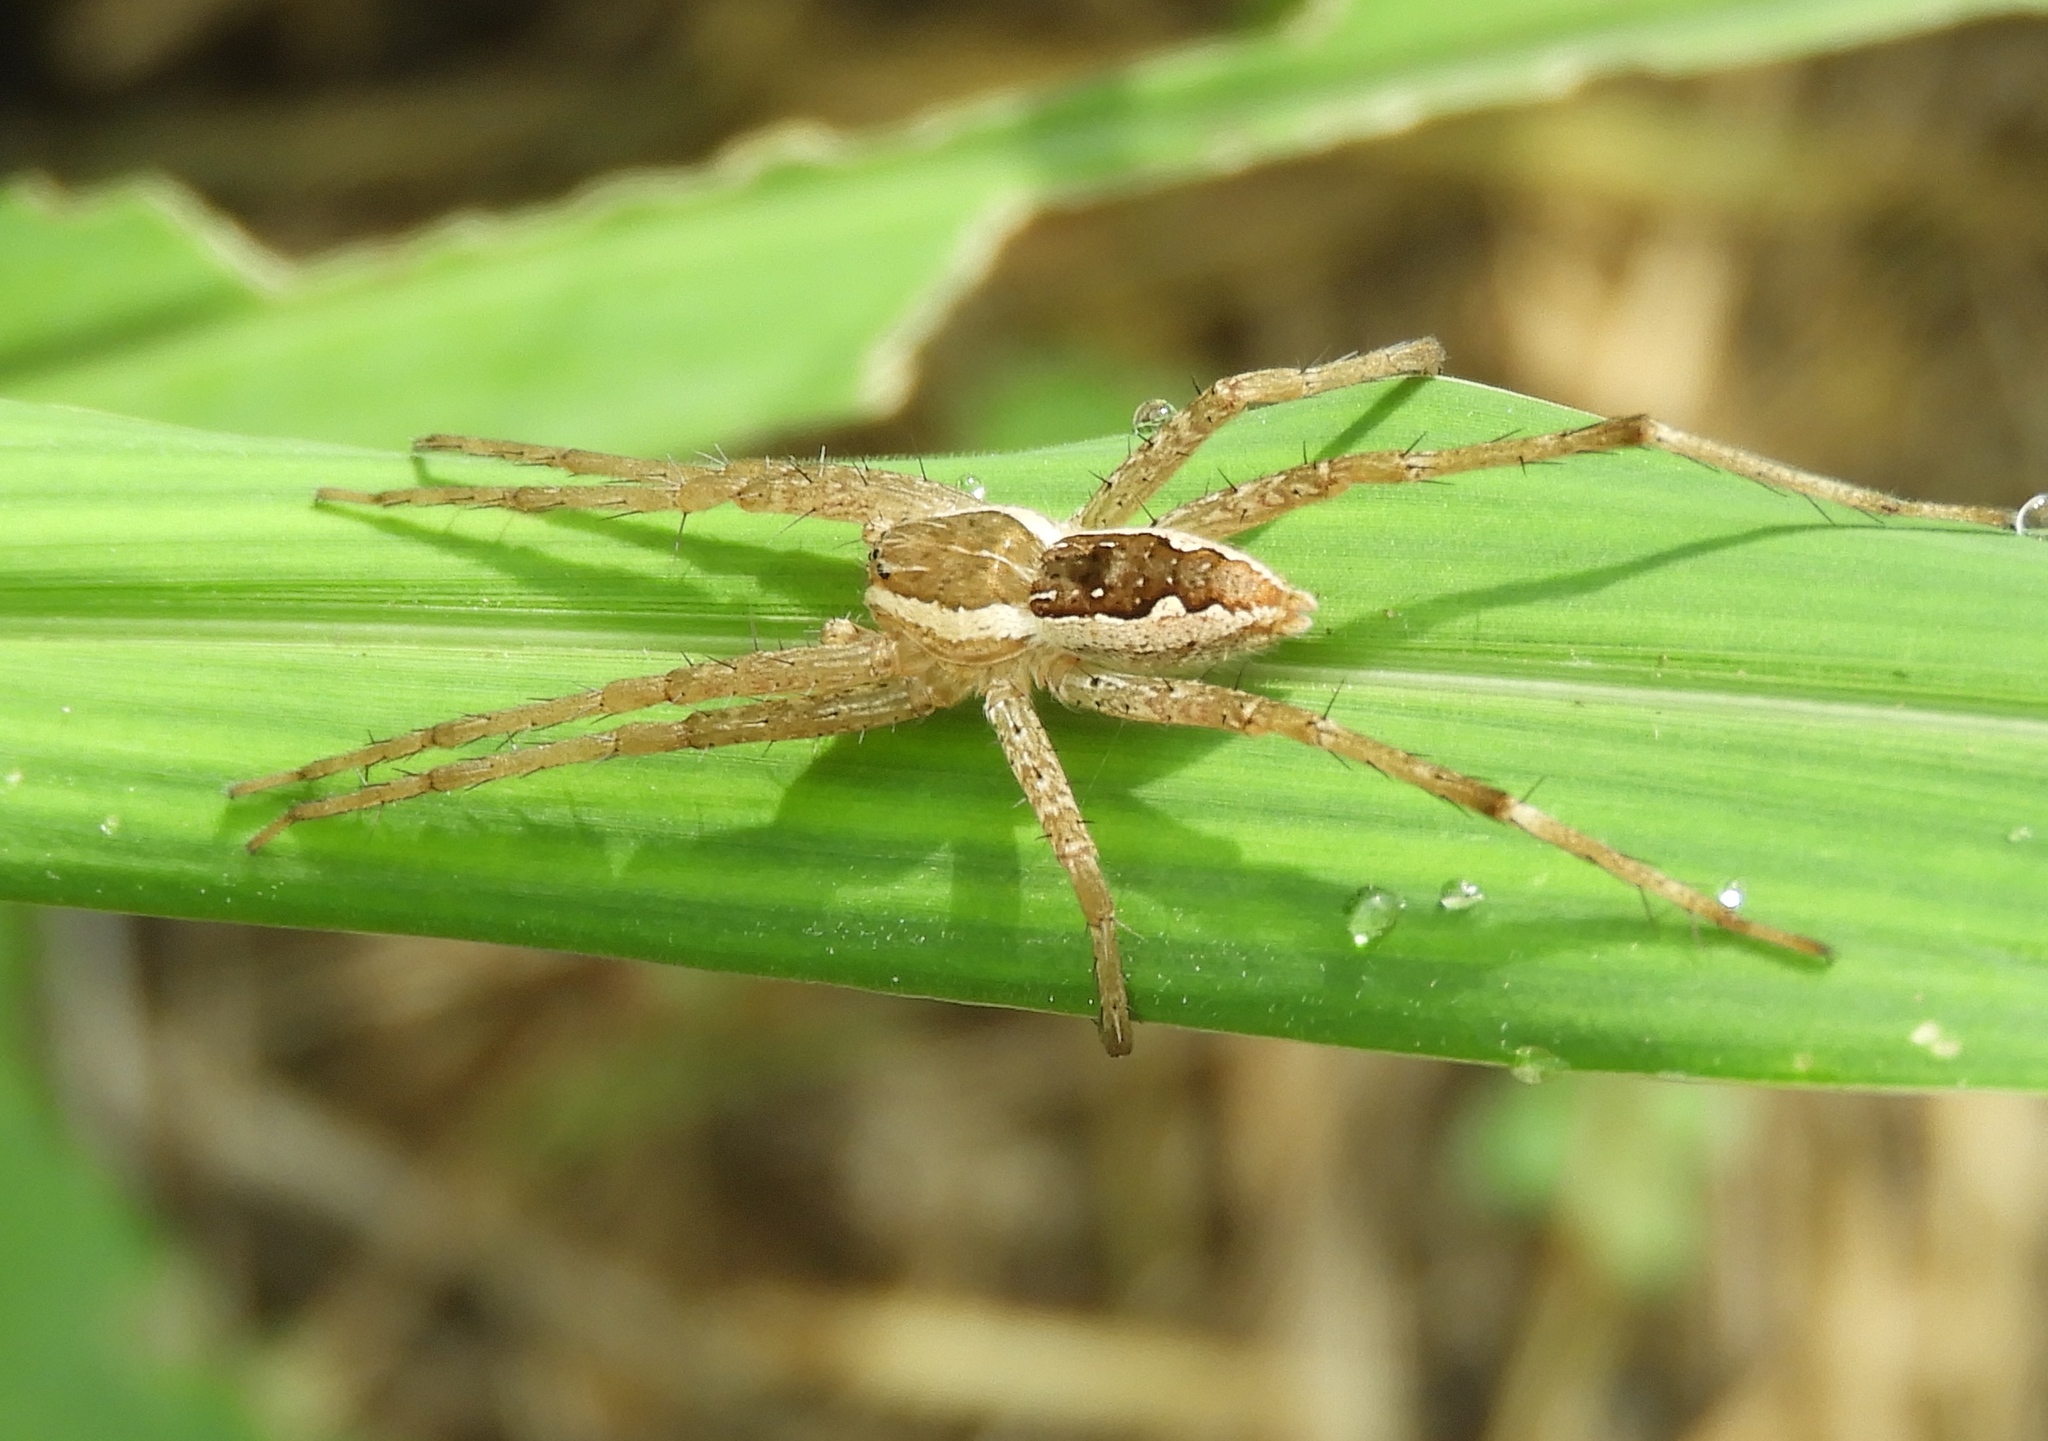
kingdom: Animalia
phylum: Arthropoda
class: Arachnida
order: Araneae
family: Pisauridae
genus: Tinus
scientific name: Tinus
